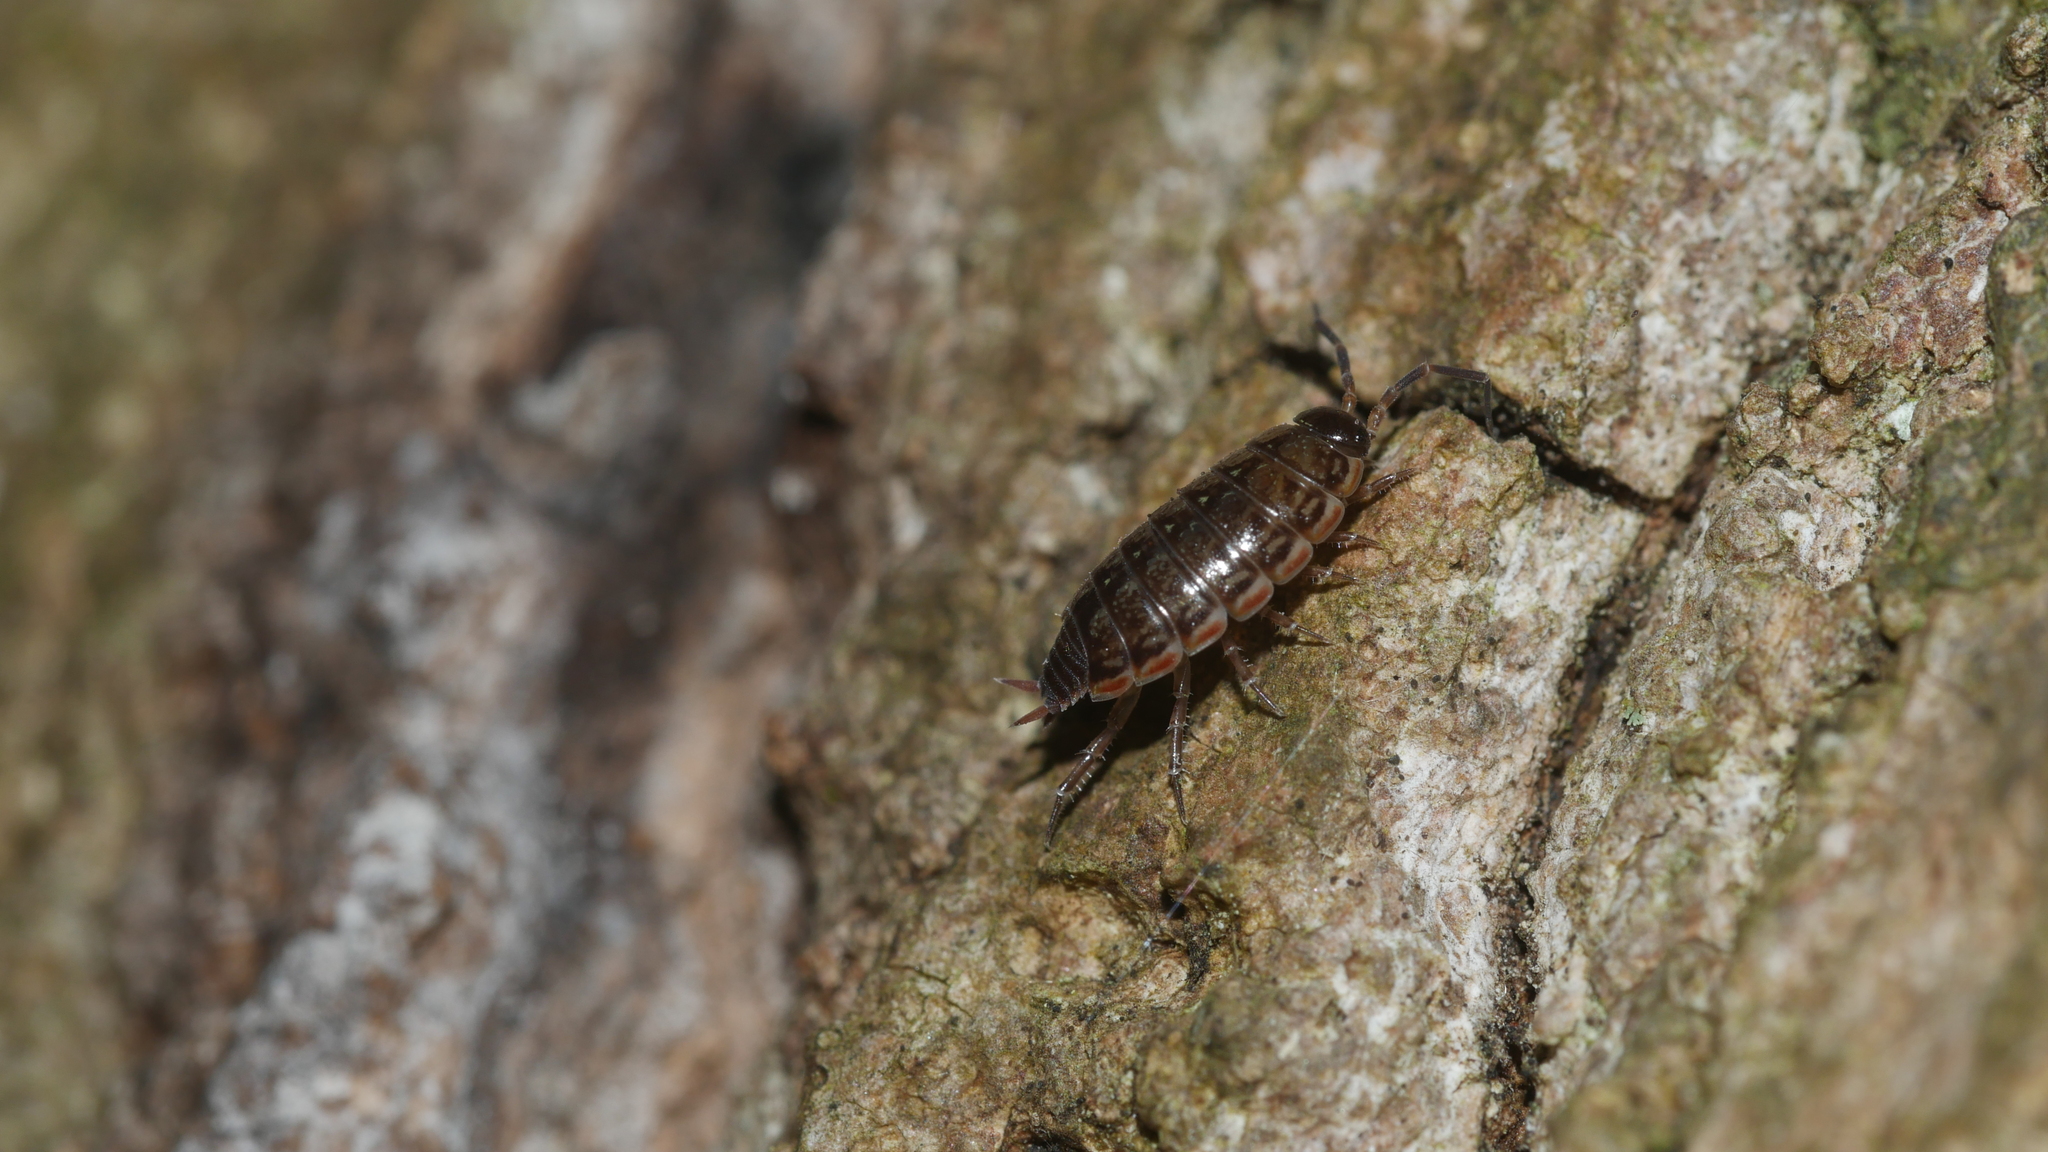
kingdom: Animalia
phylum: Arthropoda
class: Malacostraca
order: Isopoda
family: Philosciidae
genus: Philoscia
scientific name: Philoscia muscorum
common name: Common striped woodlouse
